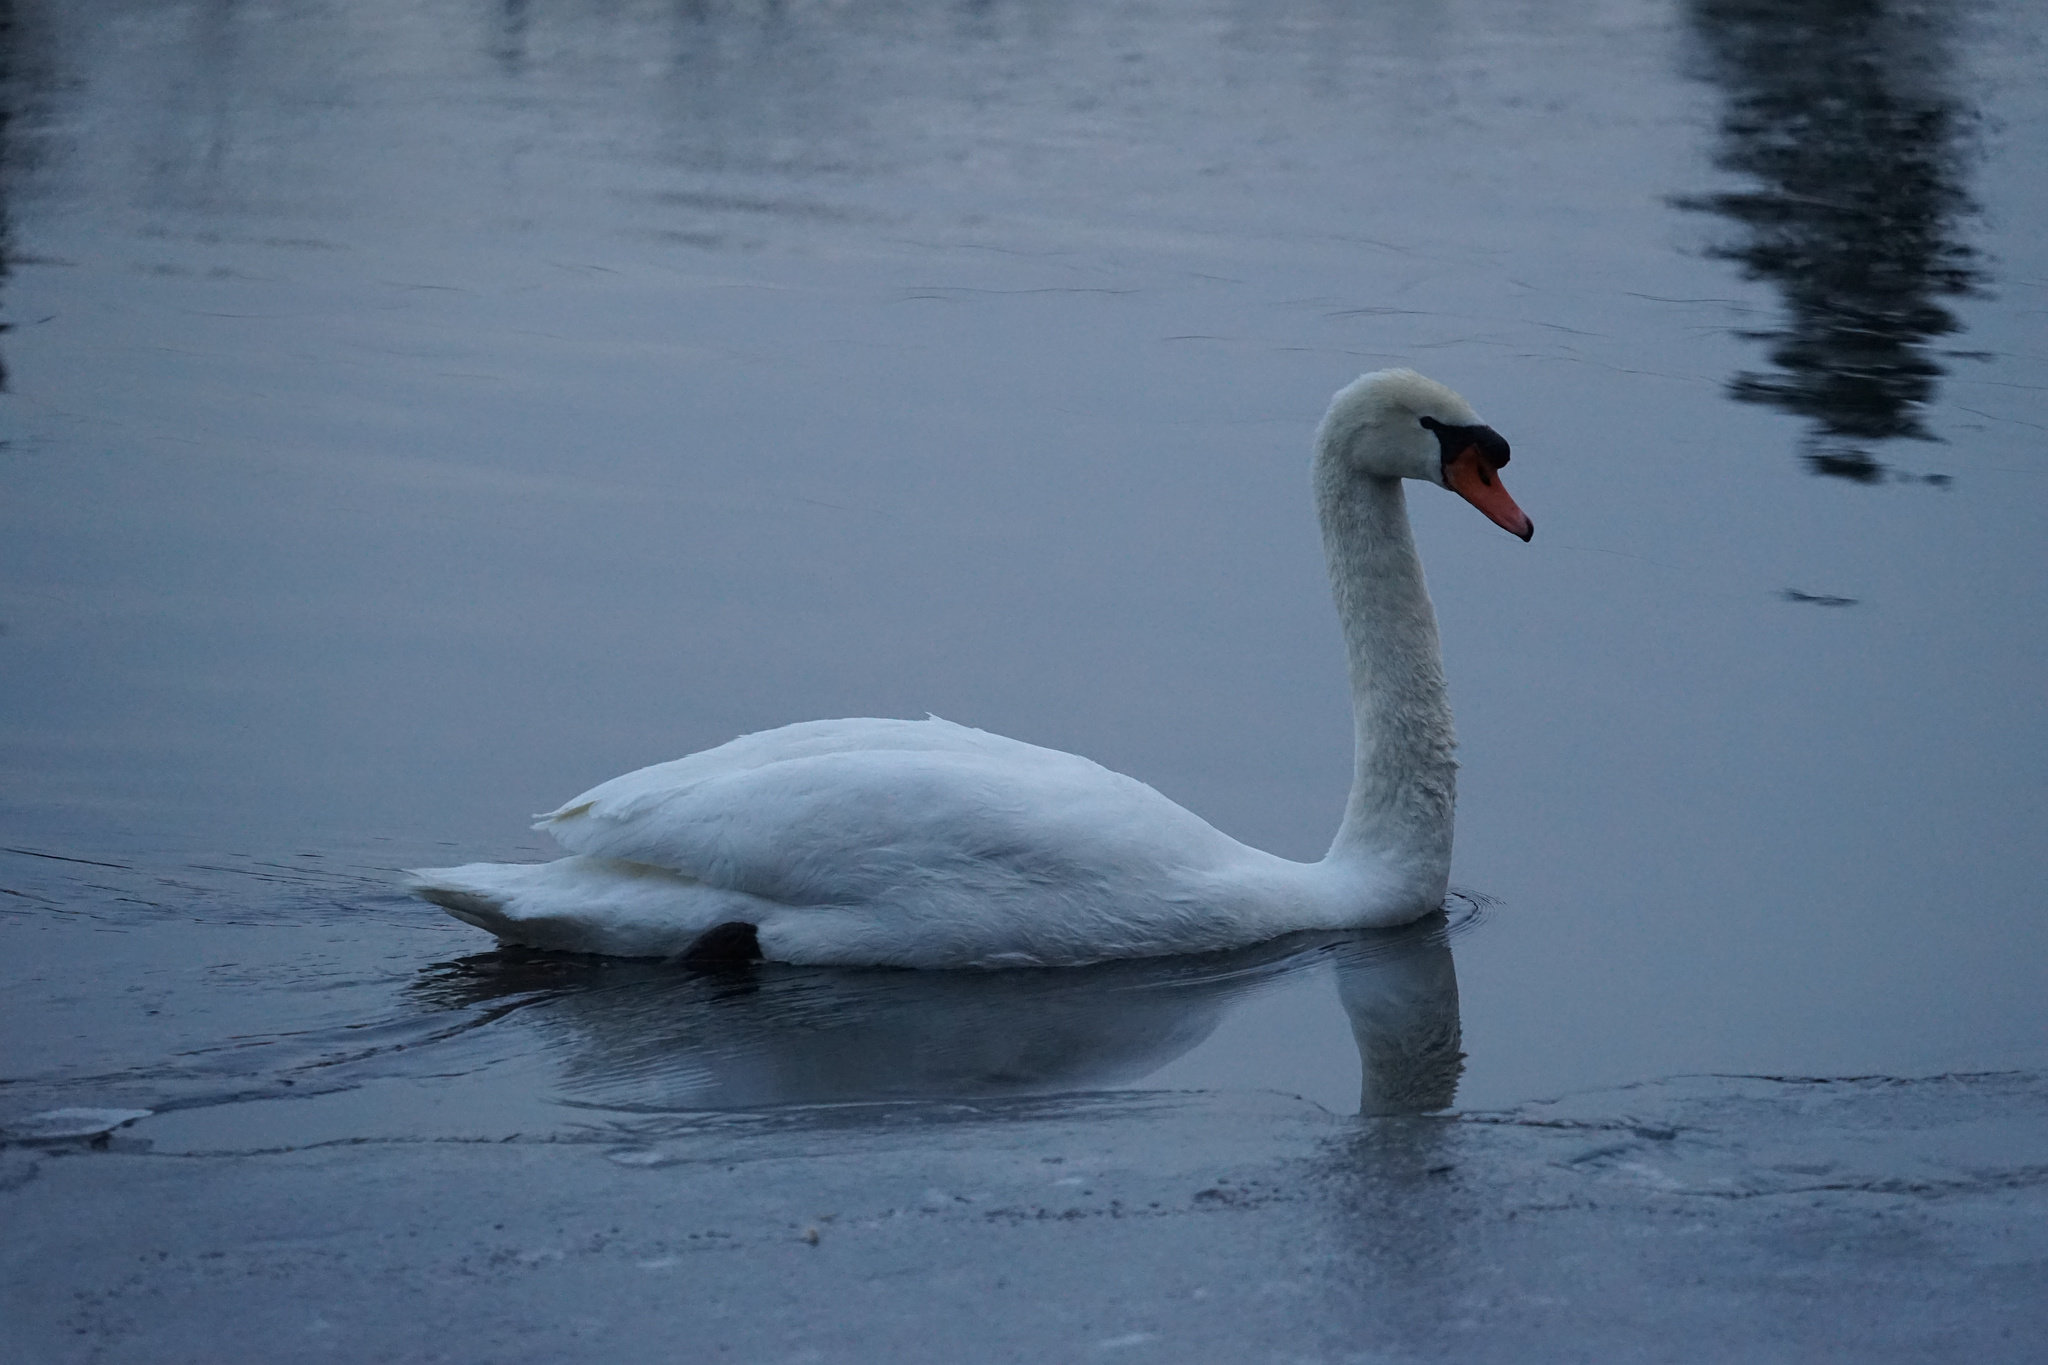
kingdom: Animalia
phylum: Chordata
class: Aves
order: Anseriformes
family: Anatidae
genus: Cygnus
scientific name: Cygnus olor
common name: Mute swan
